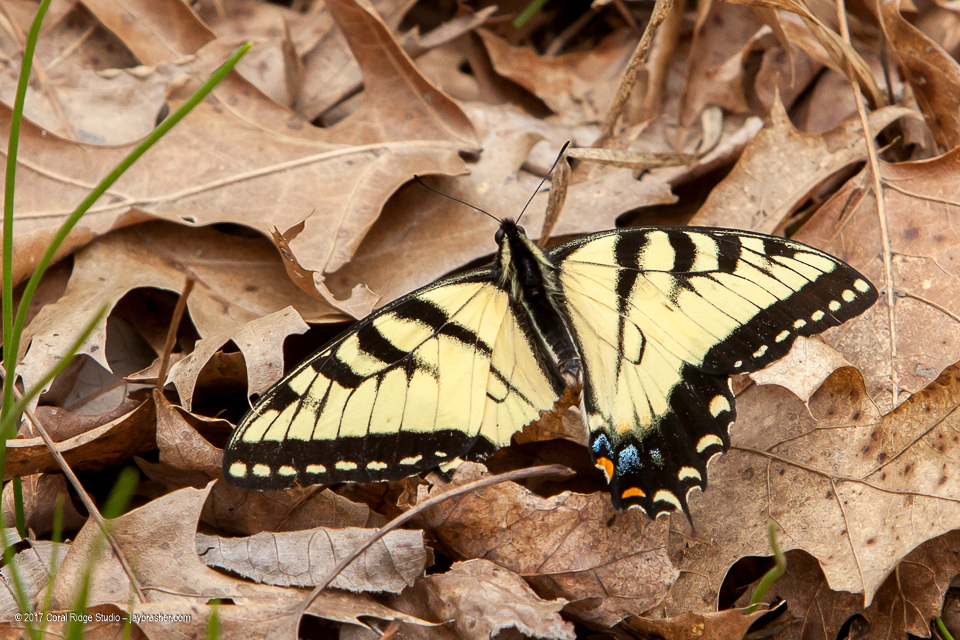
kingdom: Animalia
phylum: Arthropoda
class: Insecta
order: Lepidoptera
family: Papilionidae
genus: Papilio
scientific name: Papilio glaucus
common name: Tiger swallowtail
